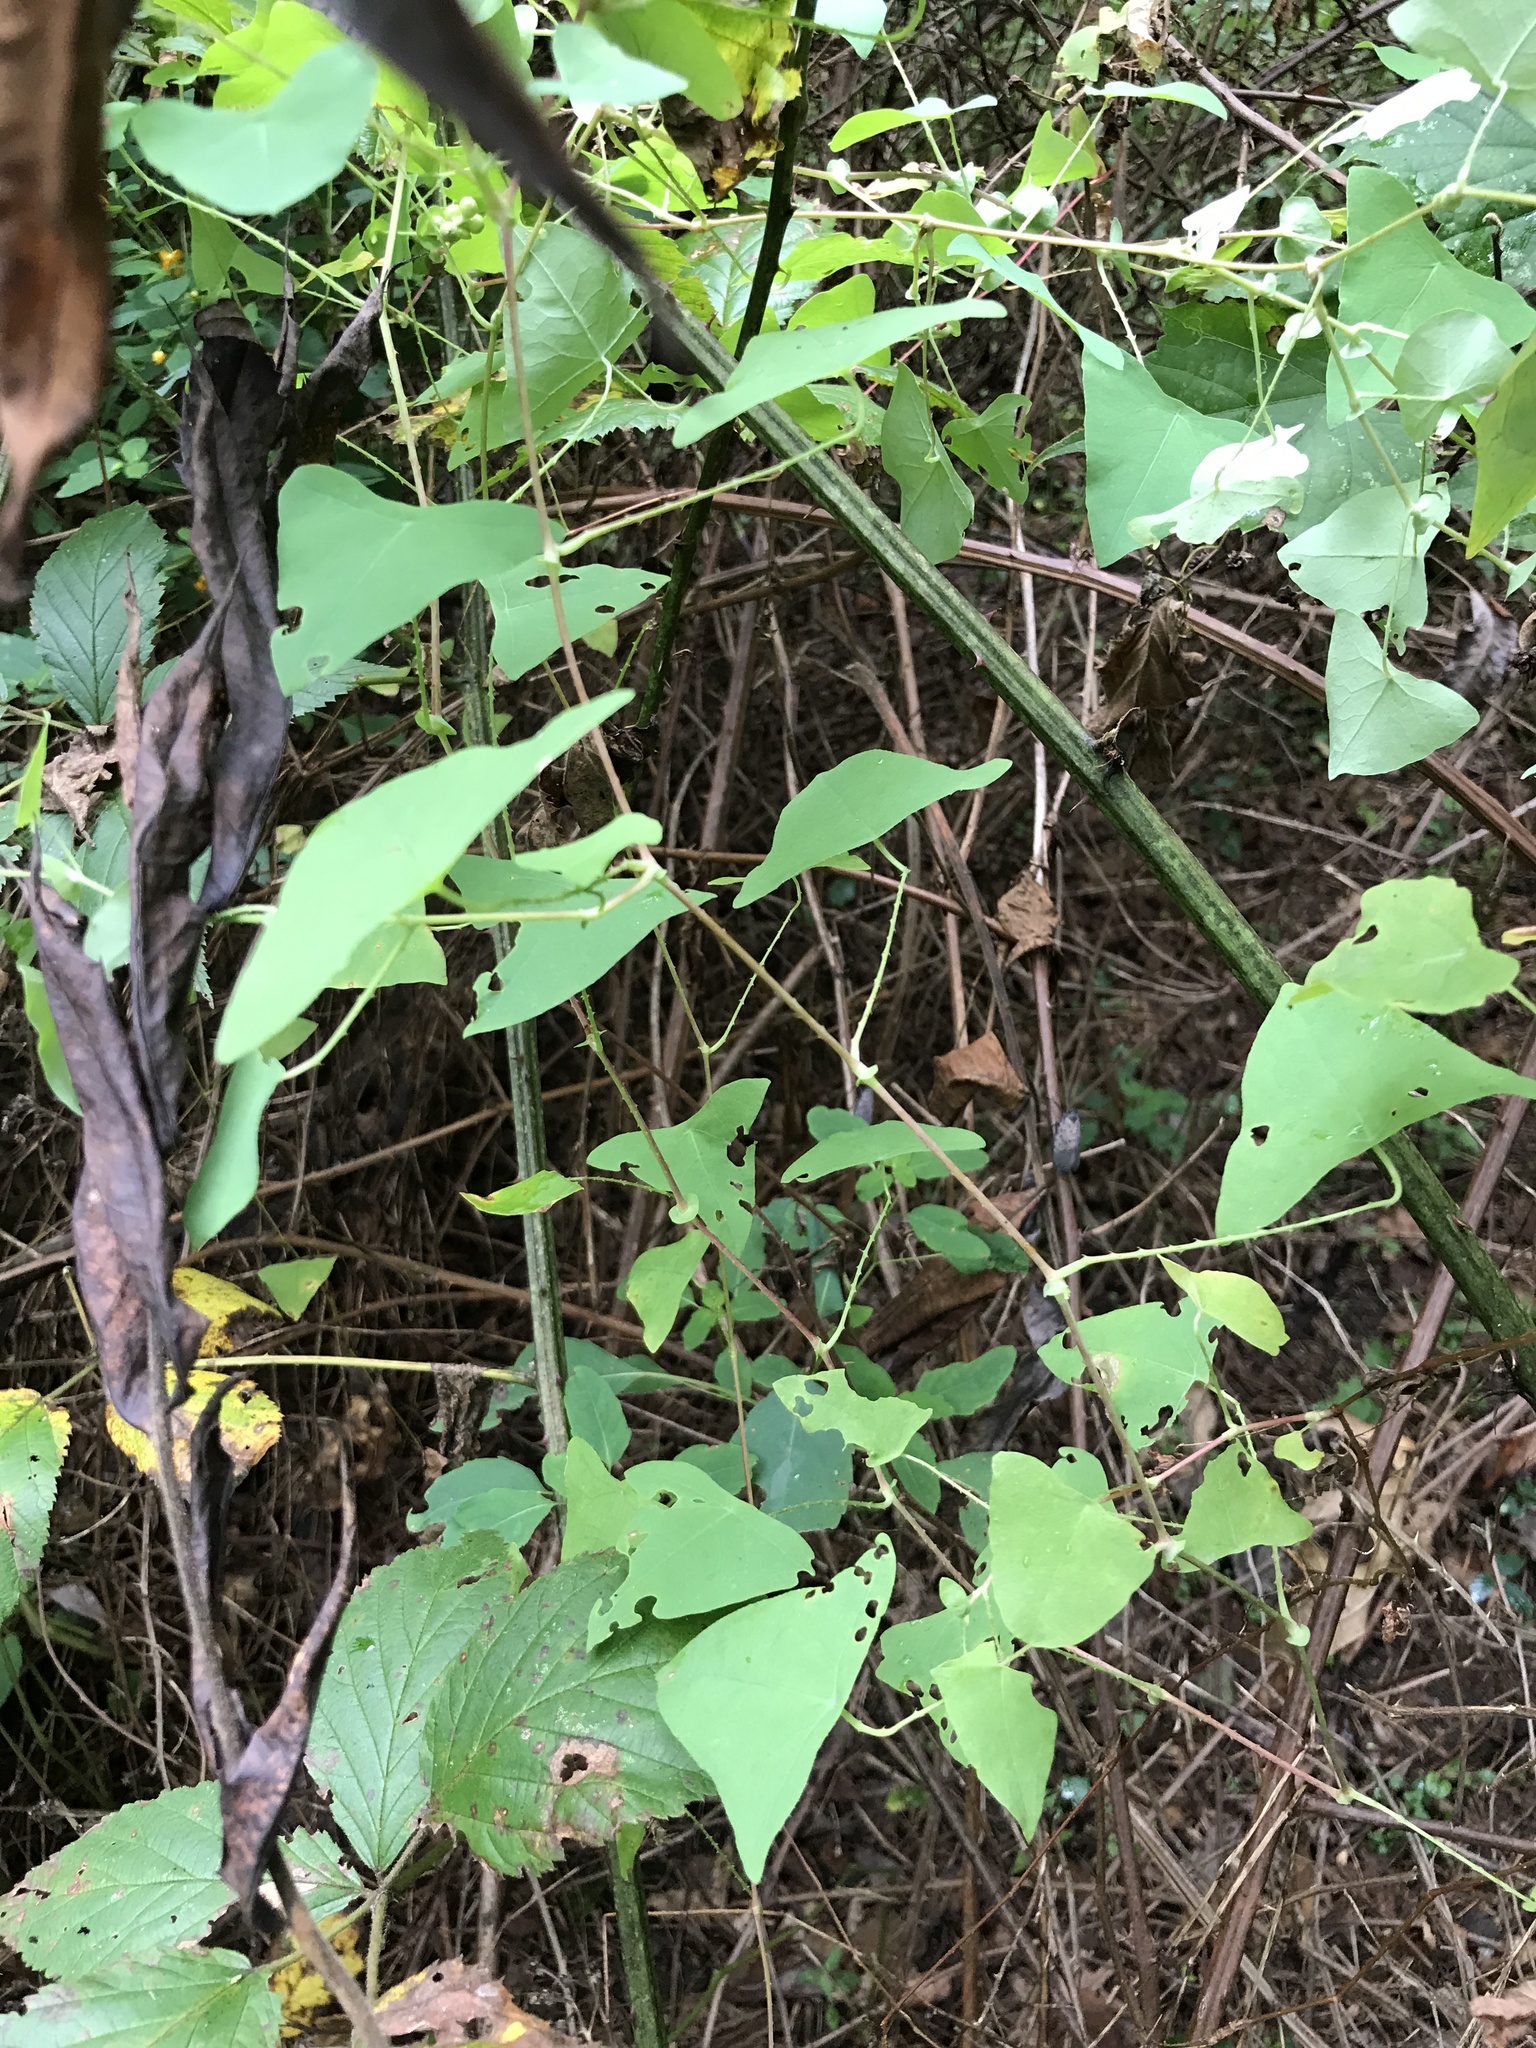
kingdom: Plantae
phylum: Tracheophyta
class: Magnoliopsida
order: Caryophyllales
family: Polygonaceae
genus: Persicaria
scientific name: Persicaria perfoliata
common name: Asiatic tearthumb
